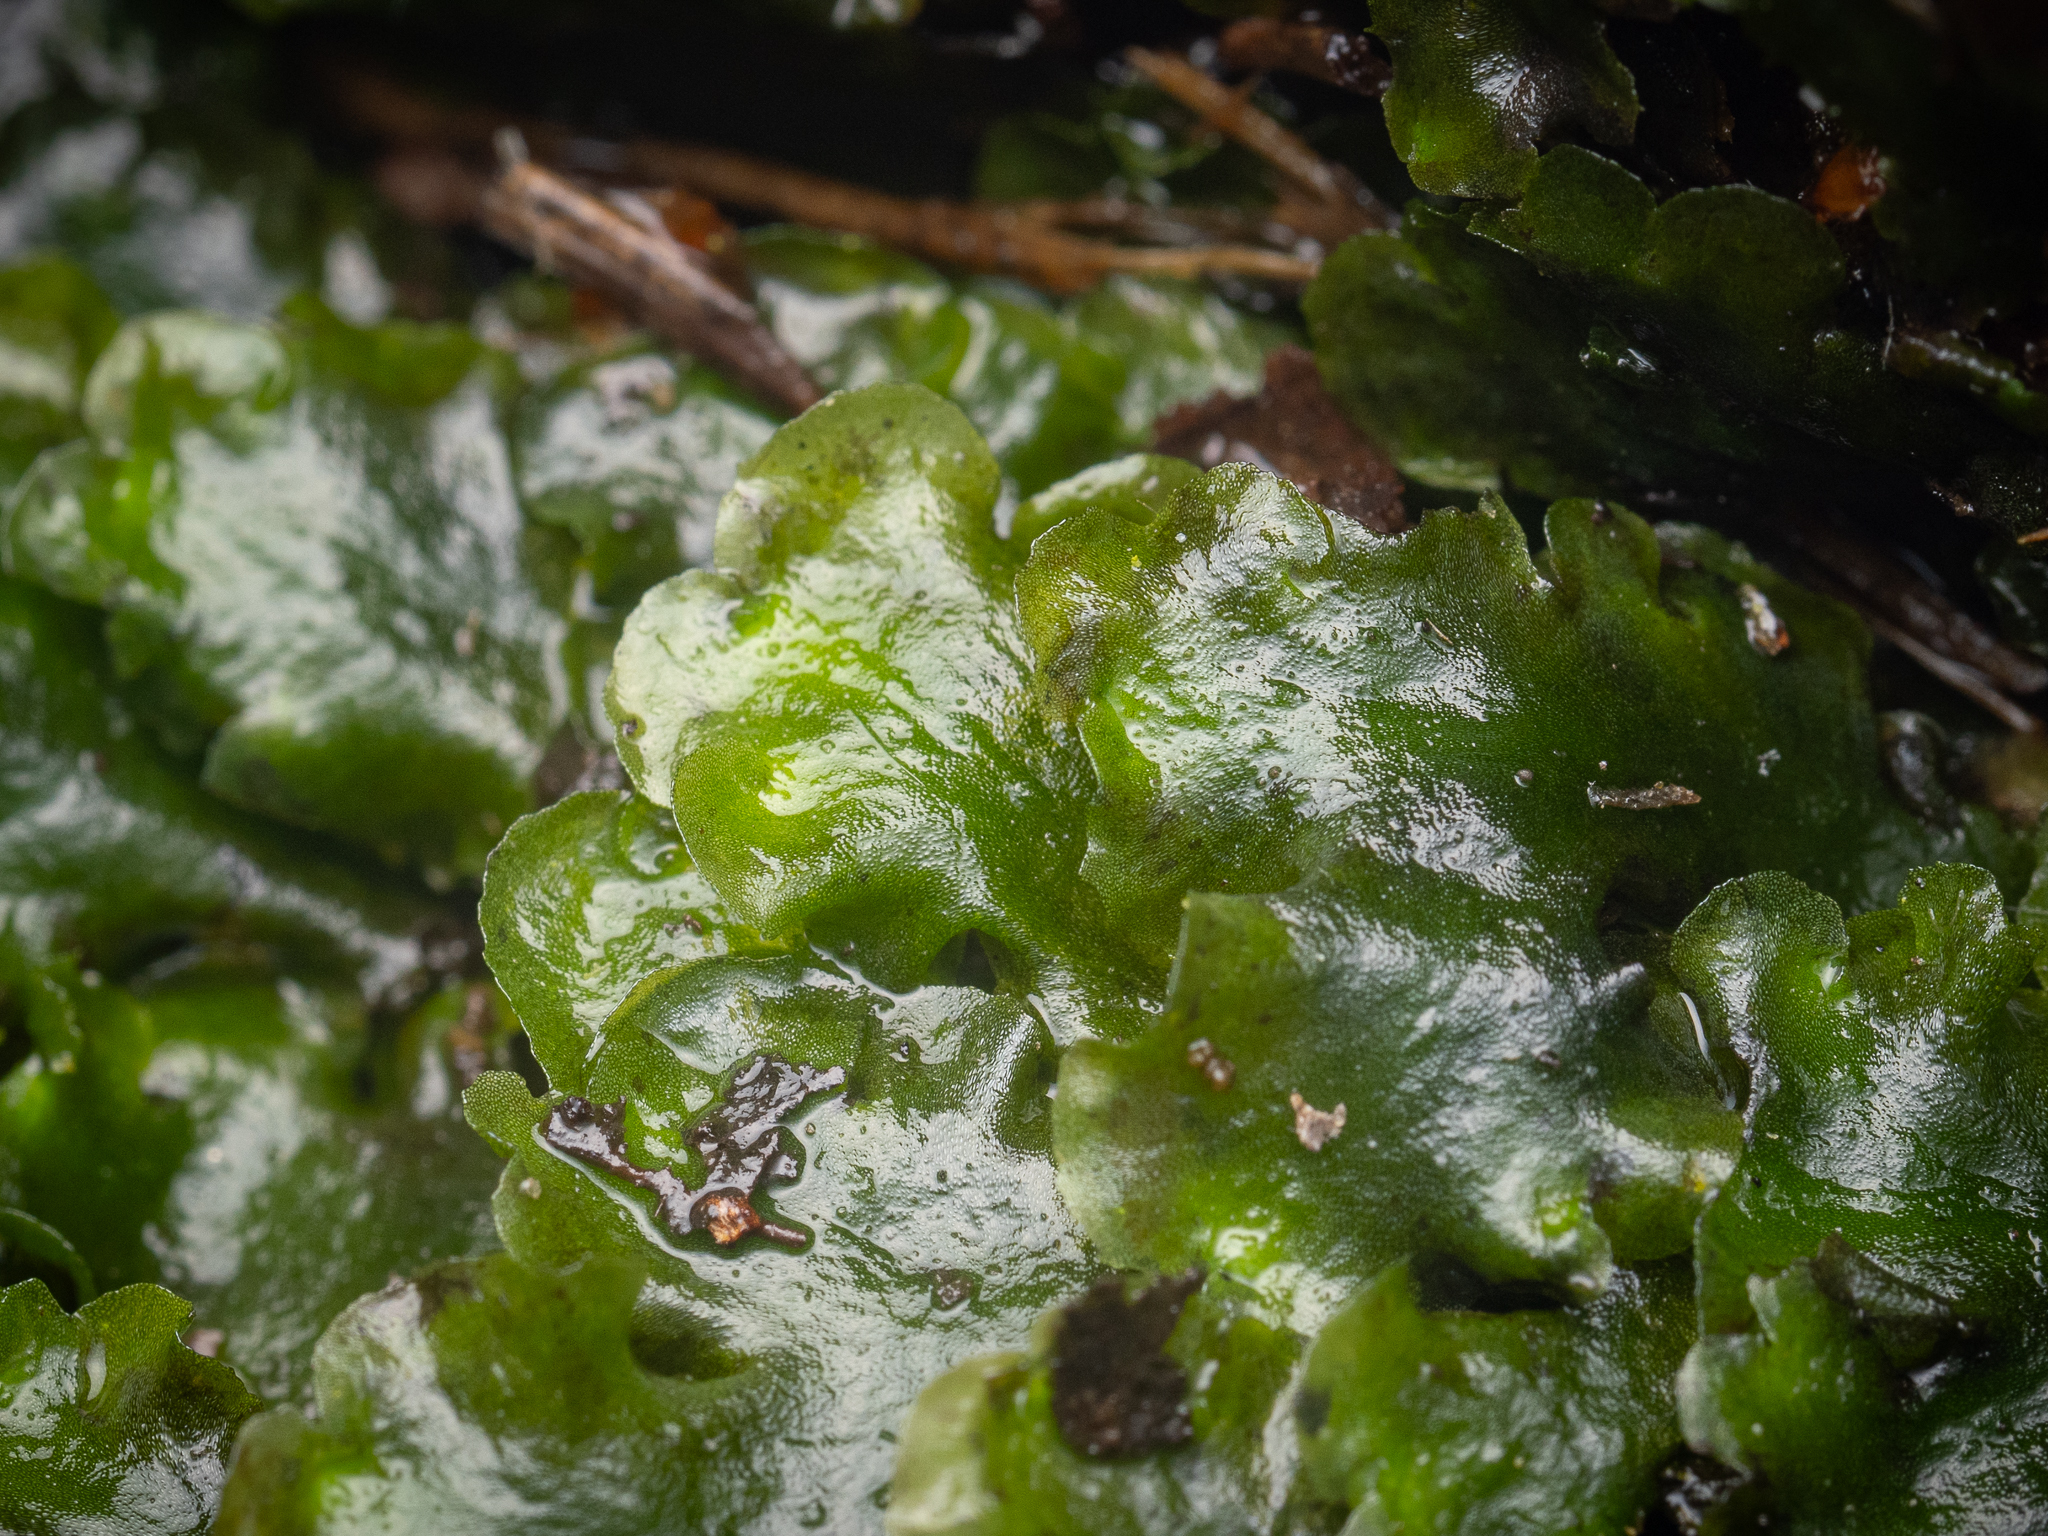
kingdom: Plantae
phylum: Marchantiophyta
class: Jungermanniopsida
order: Pelliales
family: Pelliaceae
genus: Pellia
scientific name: Pellia epiphylla
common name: Common pellia
